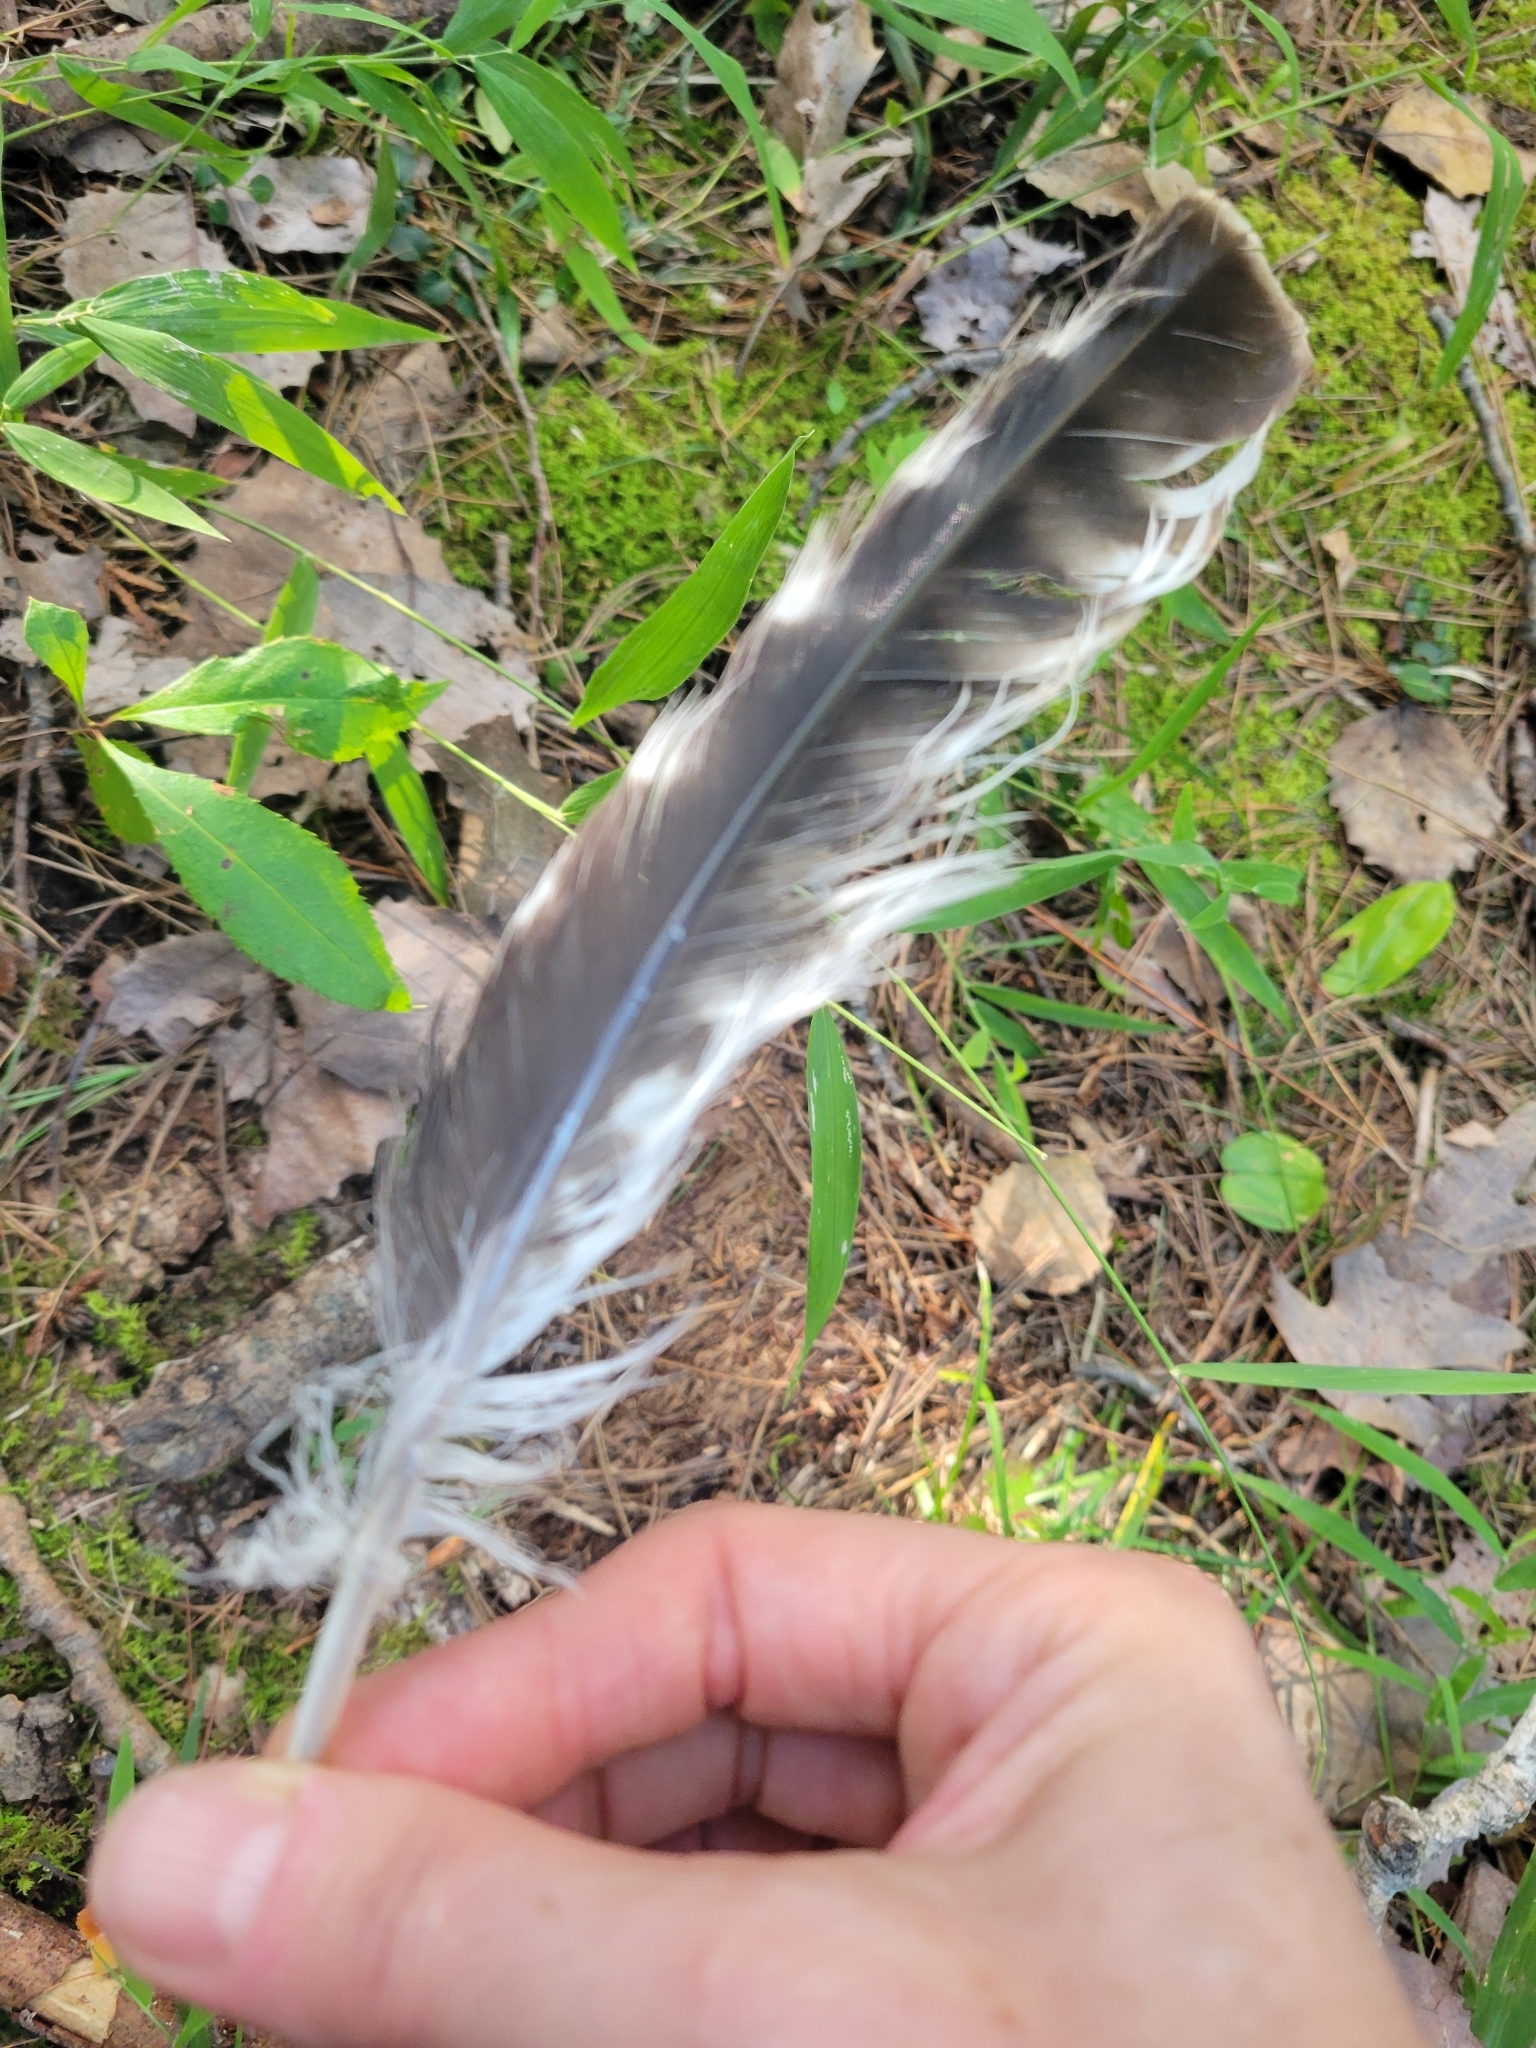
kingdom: Animalia
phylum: Chordata
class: Aves
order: Accipitriformes
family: Accipitridae
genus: Buteo
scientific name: Buteo lineatus
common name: Red-shouldered hawk
